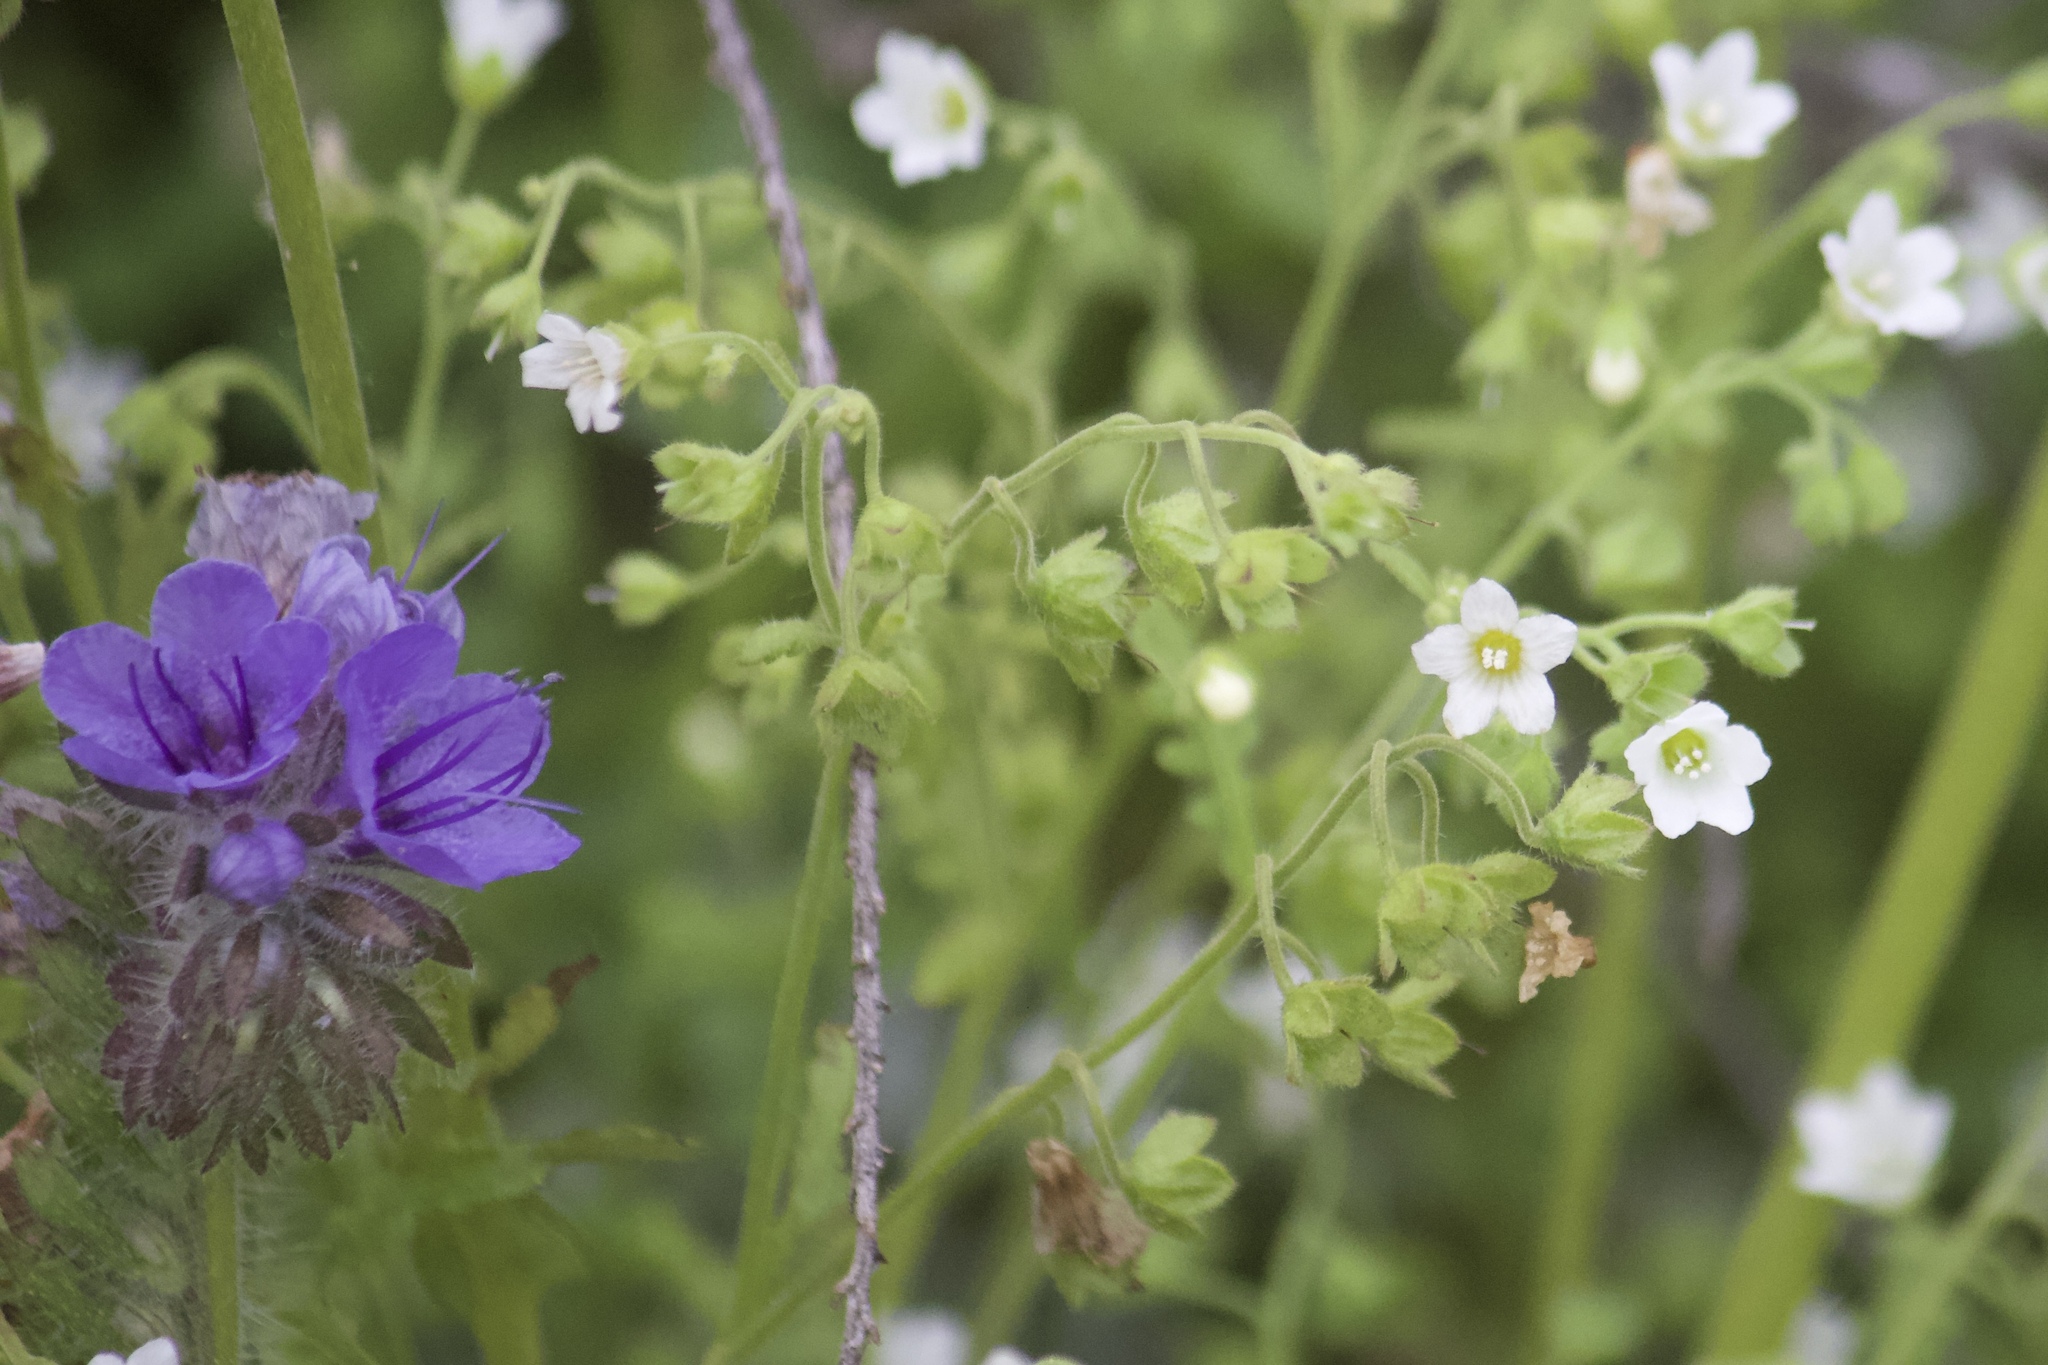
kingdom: Plantae
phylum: Tracheophyta
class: Magnoliopsida
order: Boraginales
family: Hydrophyllaceae
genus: Eucrypta
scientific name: Eucrypta chrysanthemifolia
